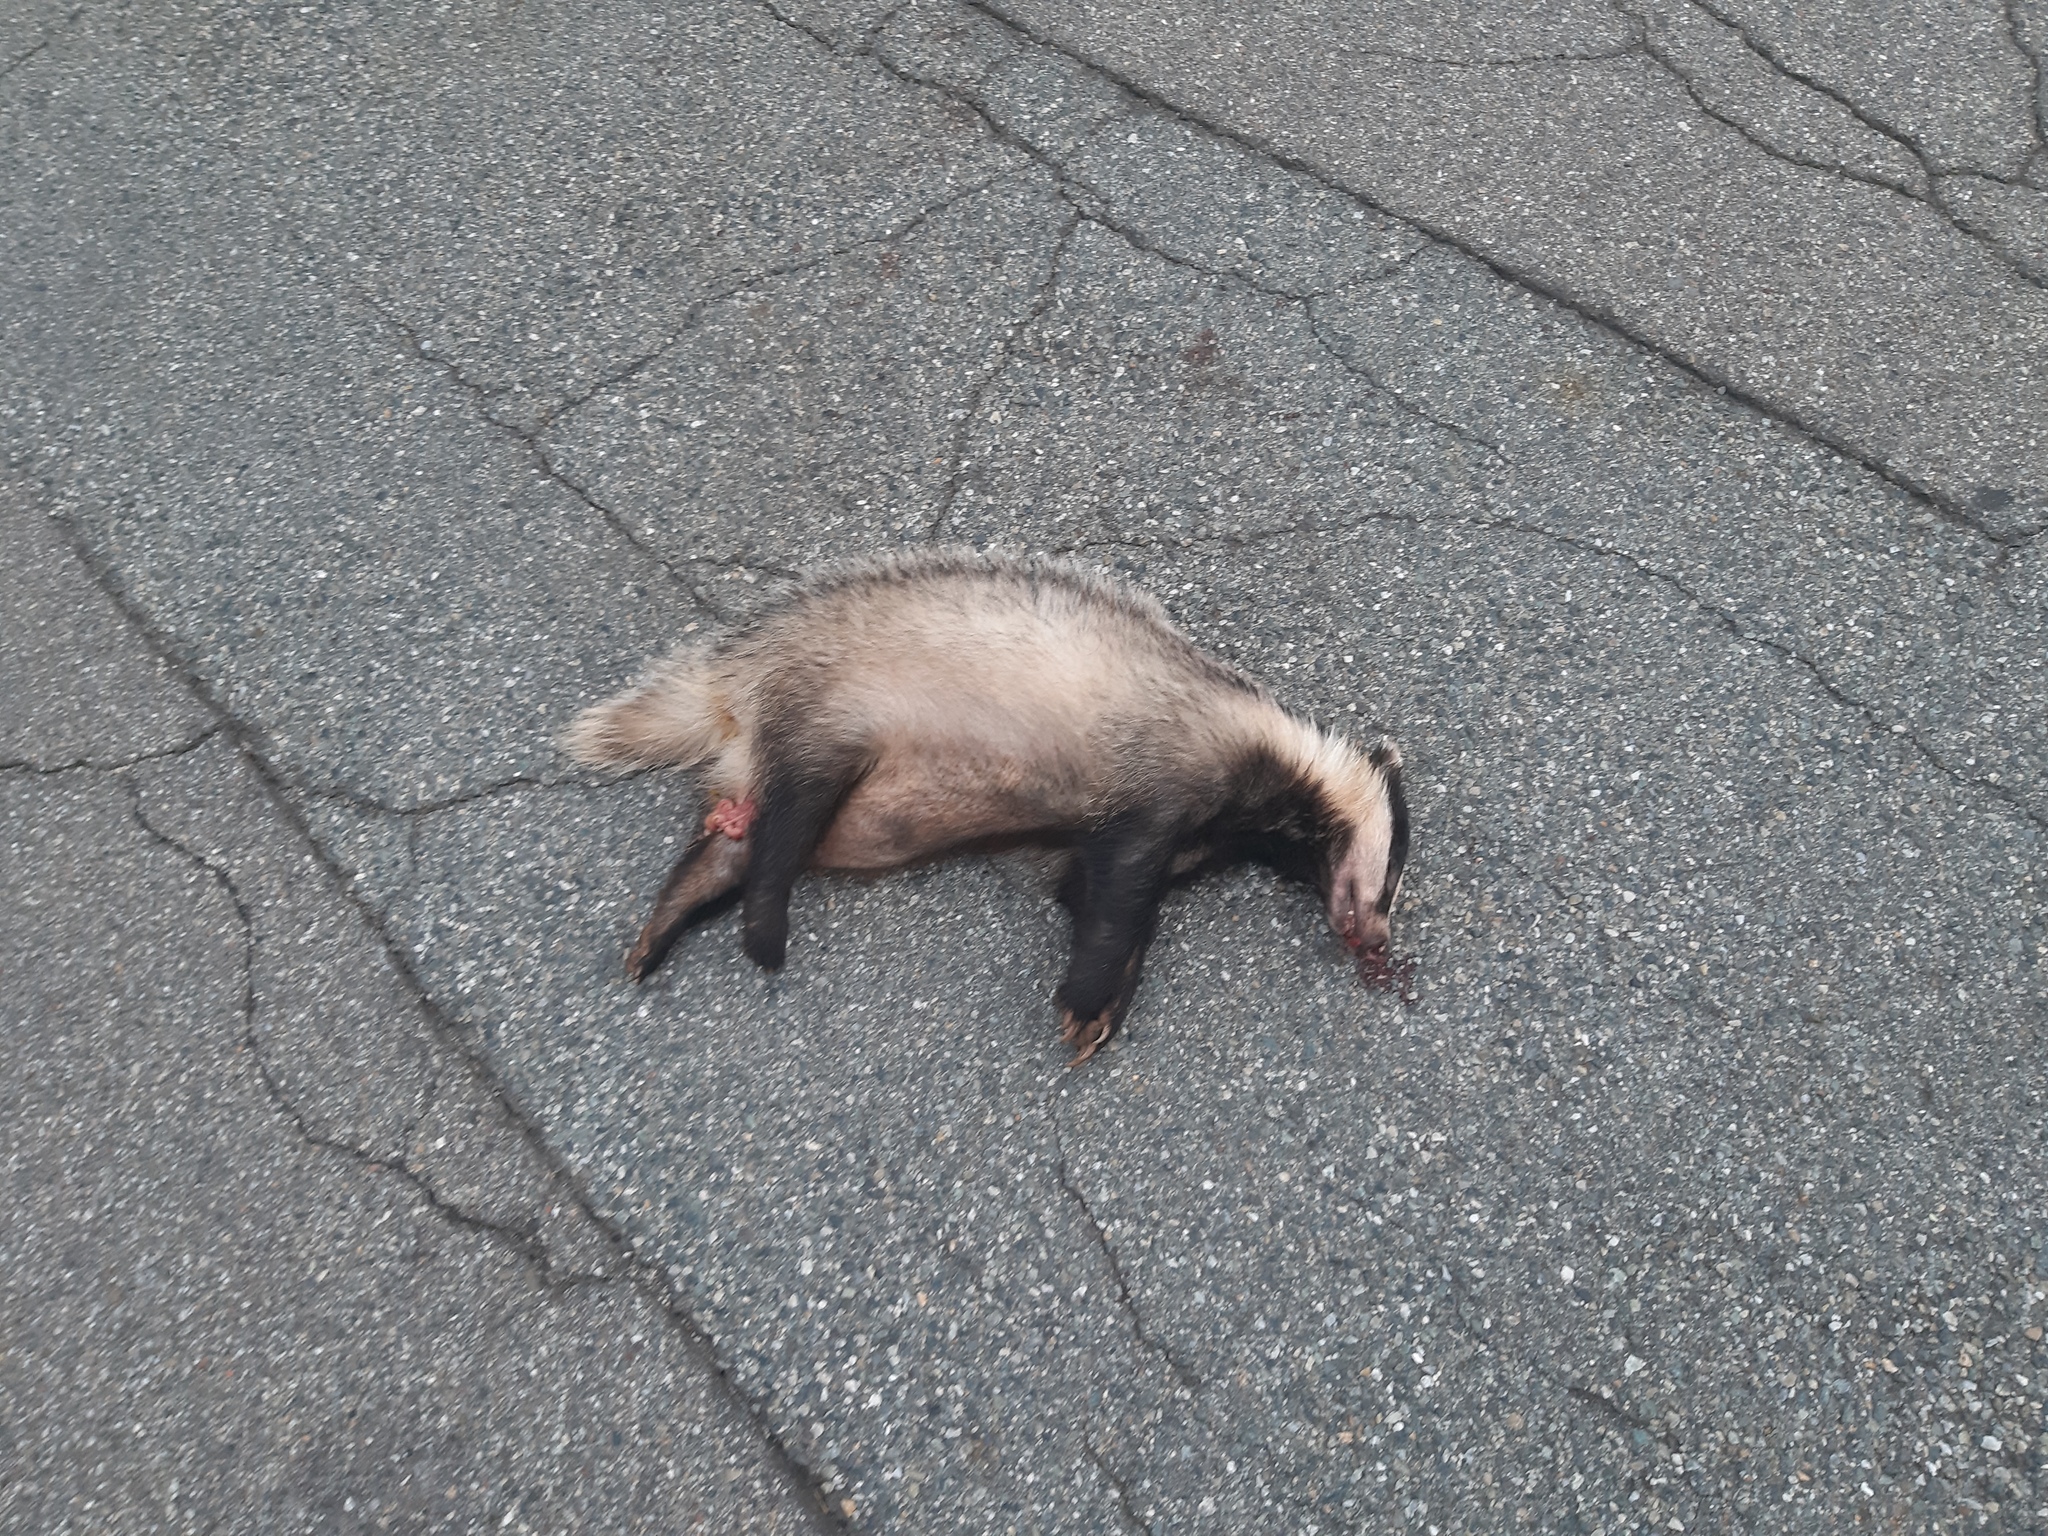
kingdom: Animalia
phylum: Chordata
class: Mammalia
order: Carnivora
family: Mustelidae
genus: Meles
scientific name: Meles meles
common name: Eurasian badger
